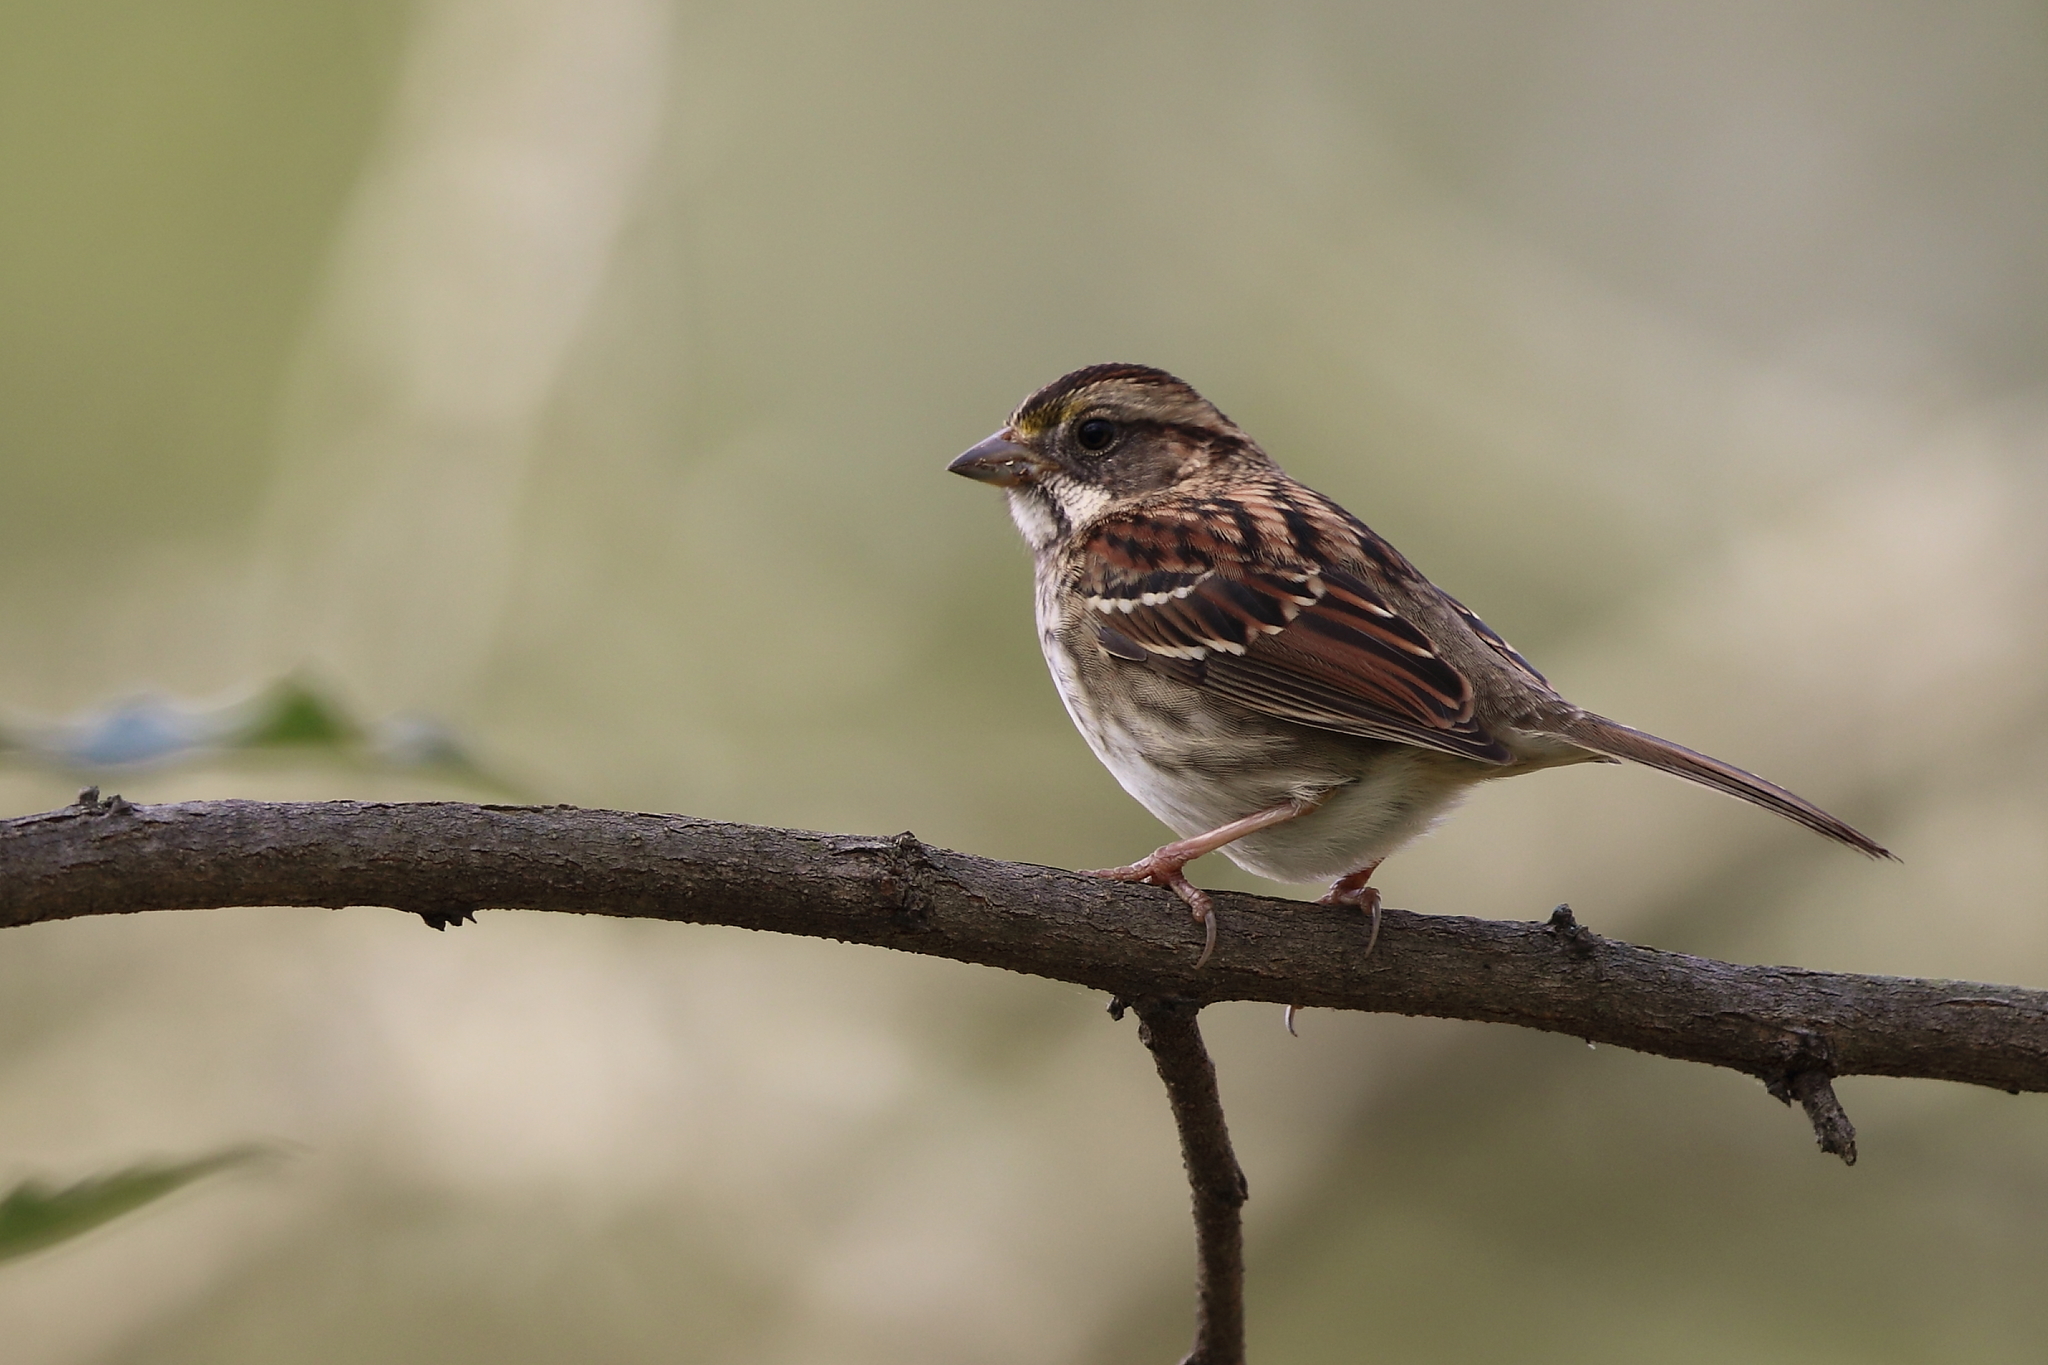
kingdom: Animalia
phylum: Chordata
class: Aves
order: Passeriformes
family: Passerellidae
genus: Zonotrichia
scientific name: Zonotrichia albicollis
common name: White-throated sparrow
